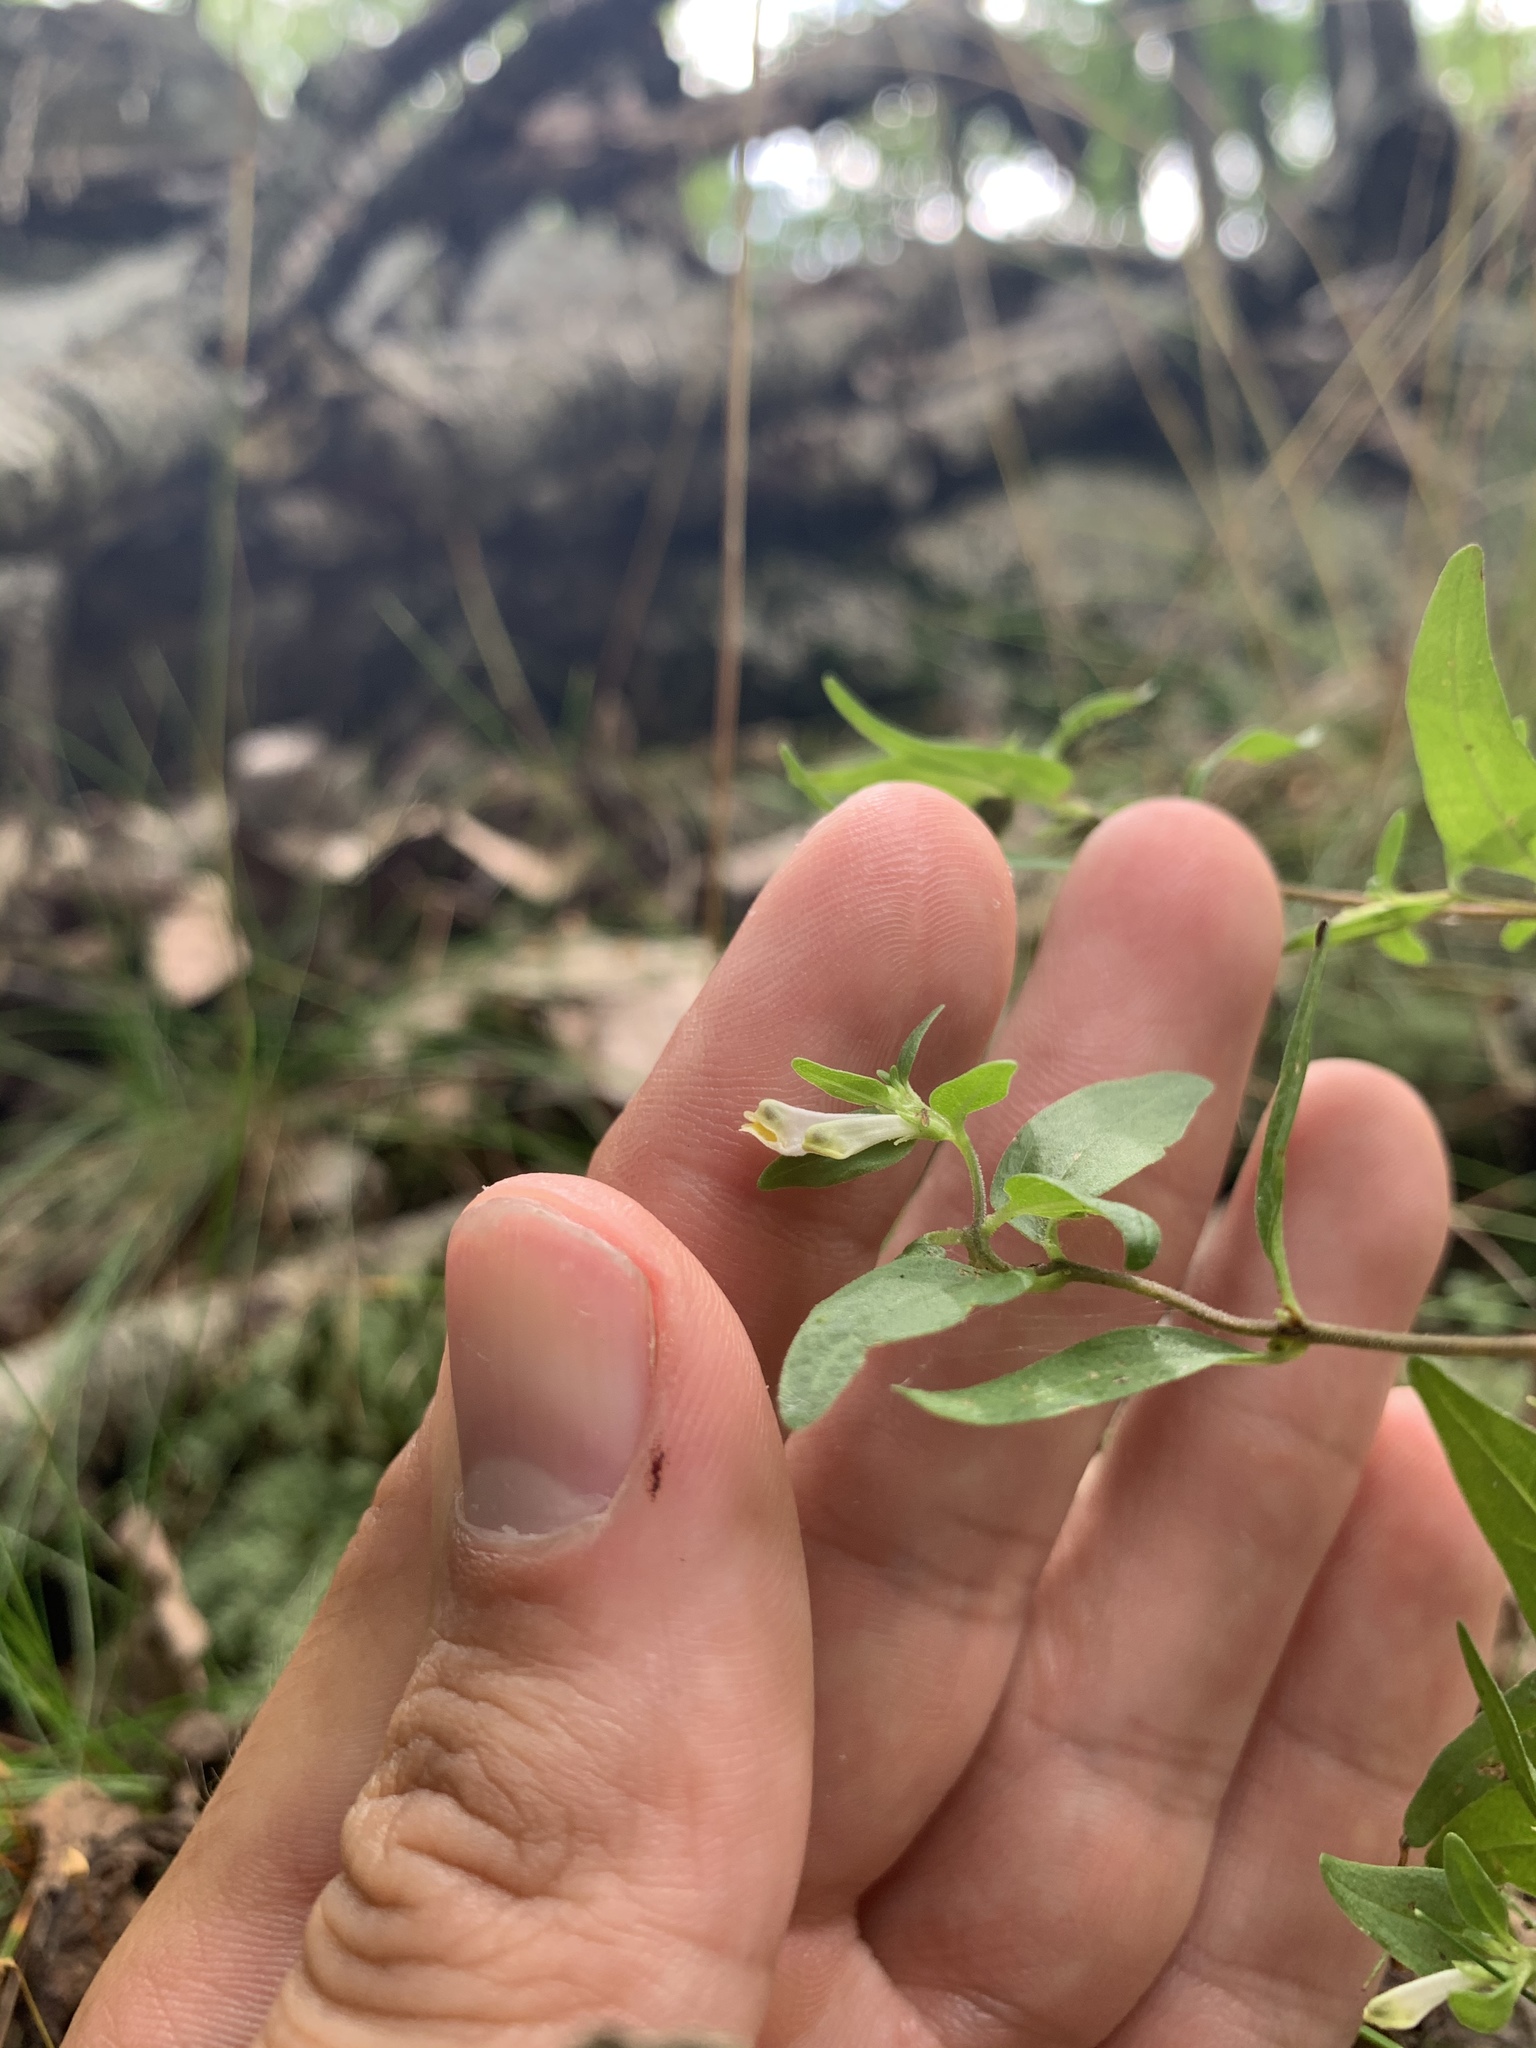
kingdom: Plantae
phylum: Tracheophyta
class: Magnoliopsida
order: Lamiales
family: Orobanchaceae
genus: Melampyrum
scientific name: Melampyrum lineare
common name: American cow-wheat
